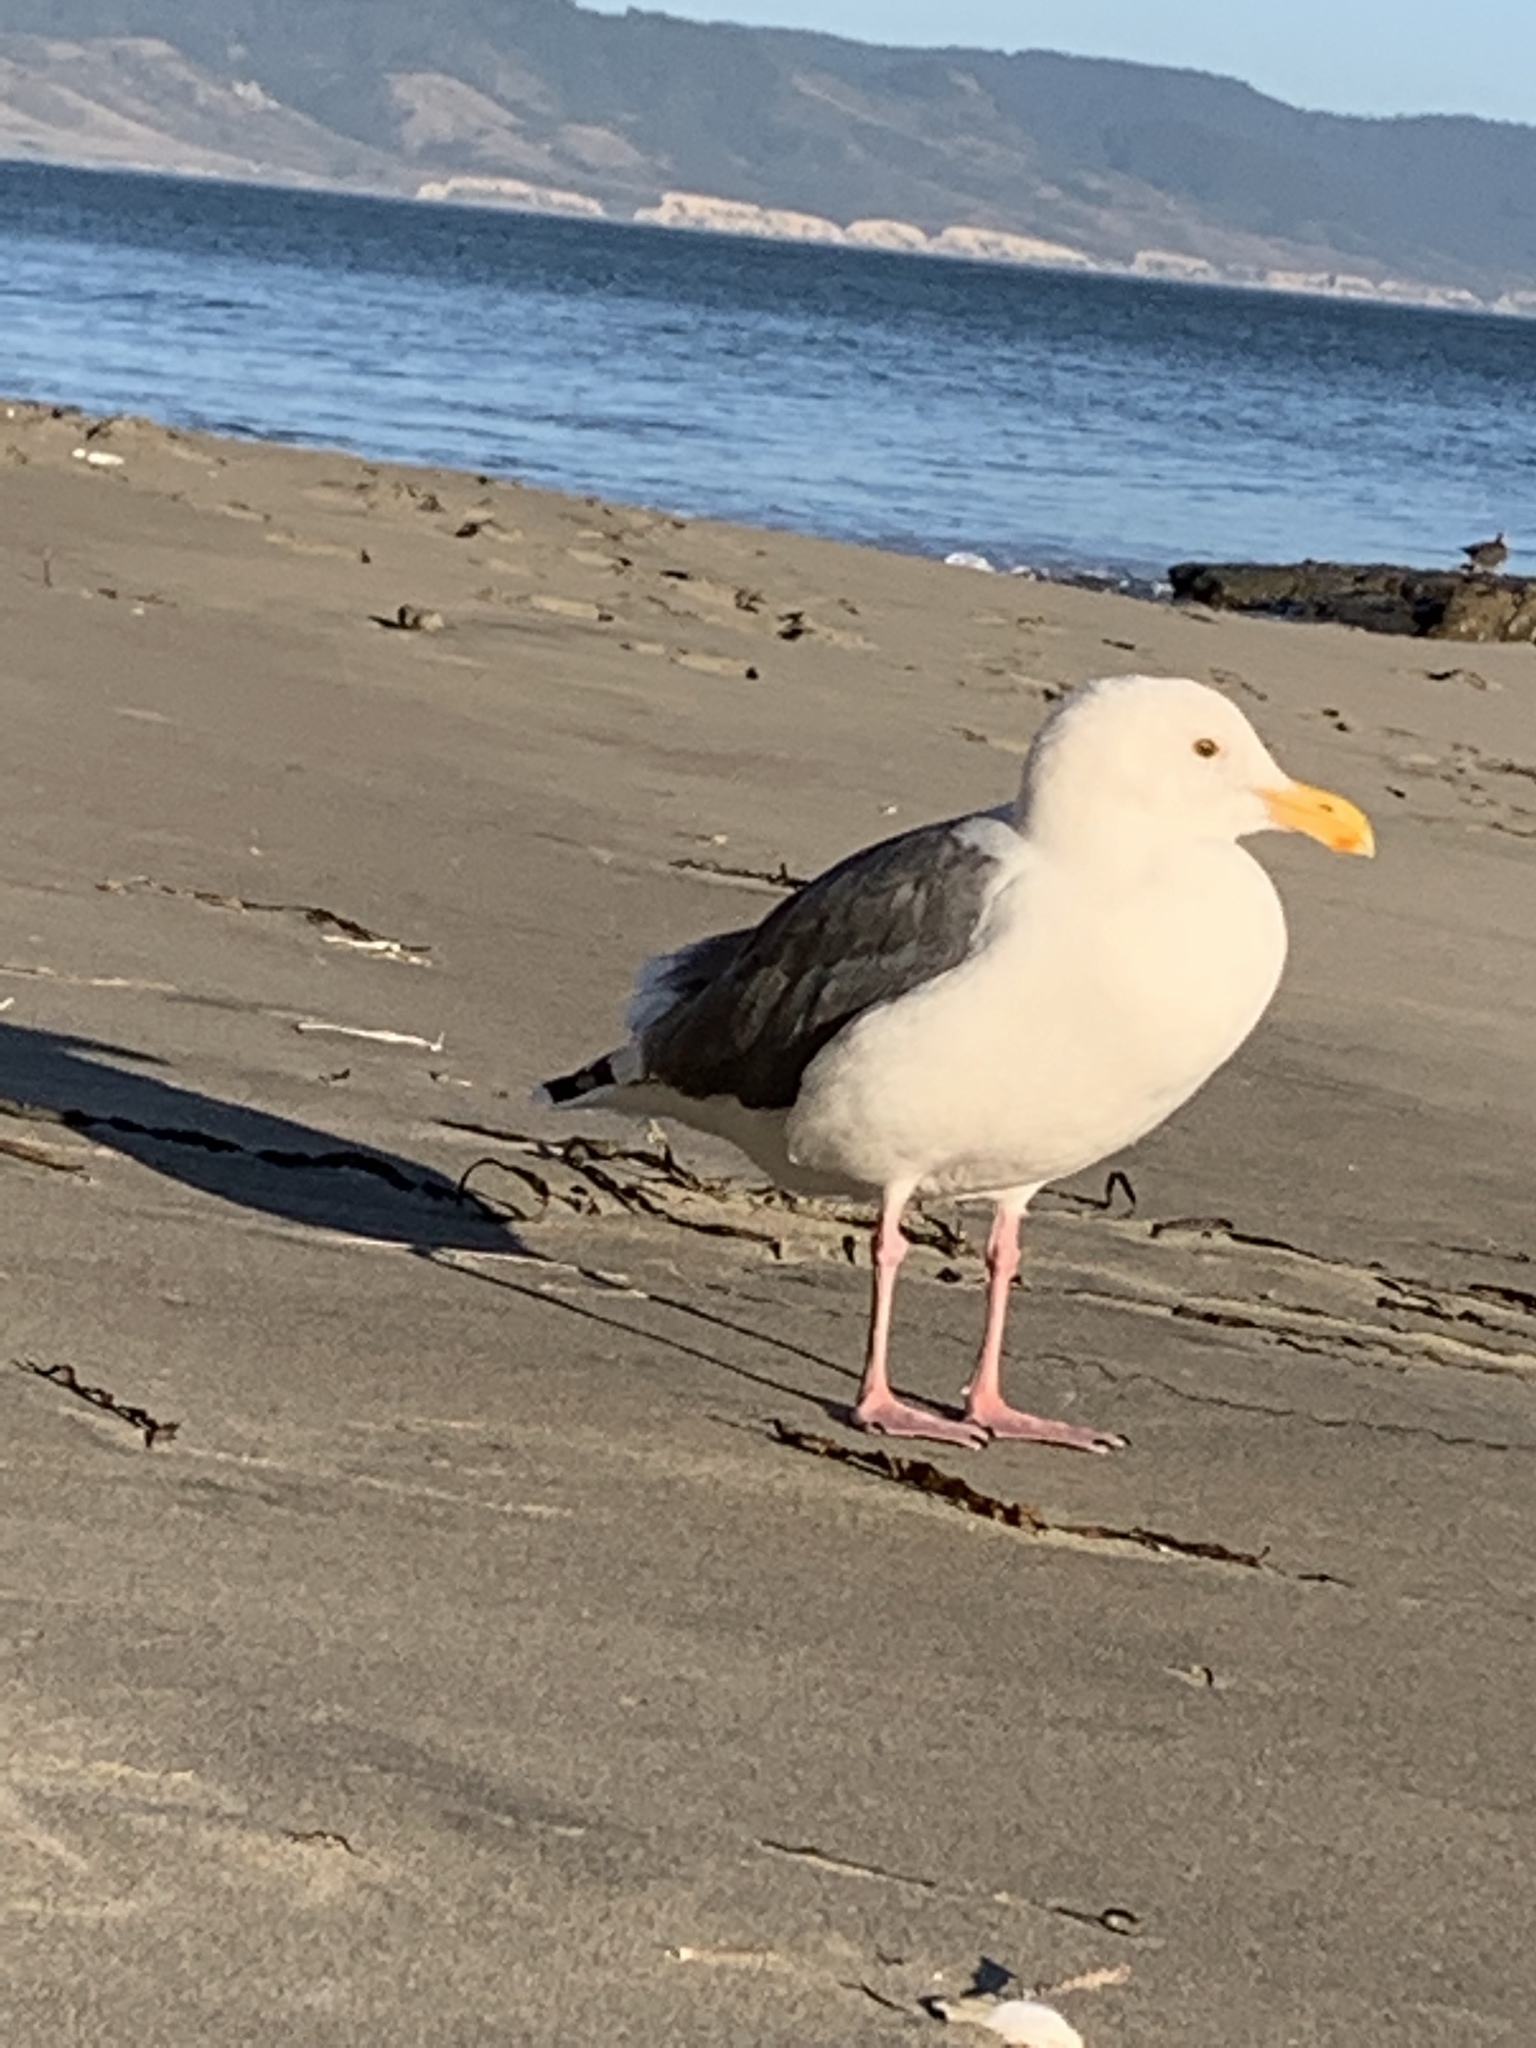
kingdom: Animalia
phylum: Chordata
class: Aves
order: Charadriiformes
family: Laridae
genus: Larus
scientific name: Larus occidentalis
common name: Western gull
